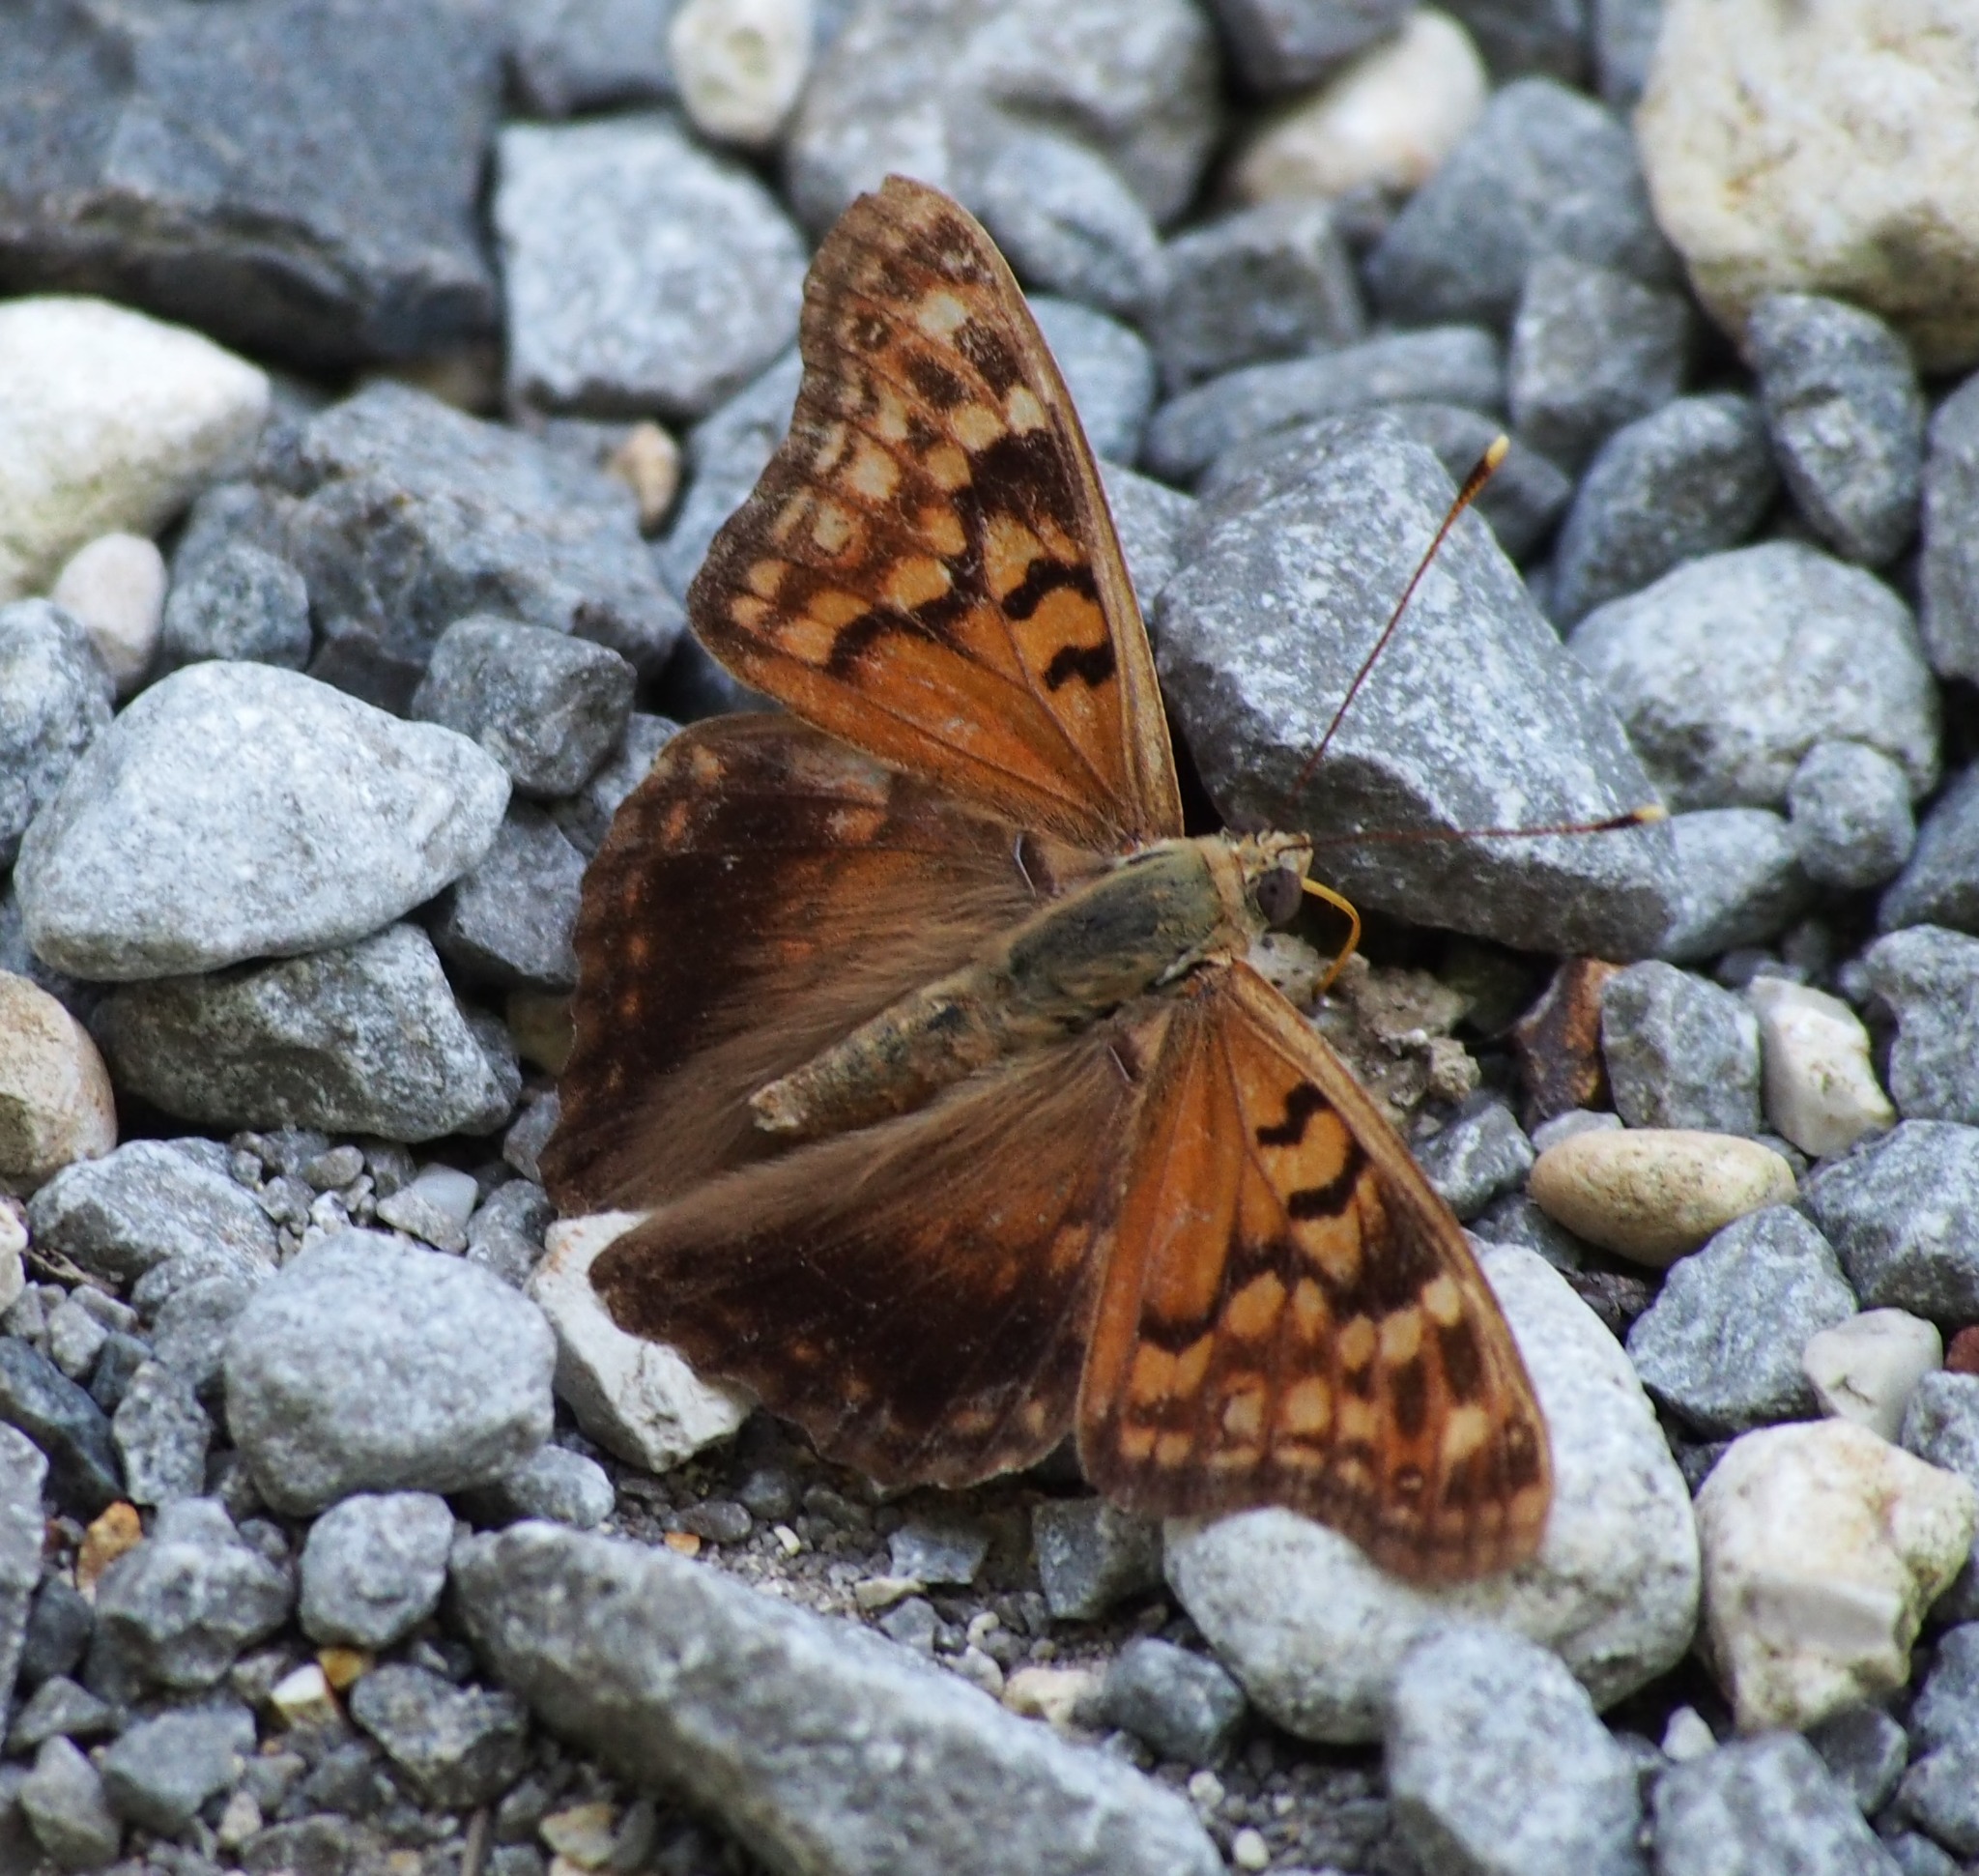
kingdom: Animalia
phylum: Arthropoda
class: Insecta
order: Lepidoptera
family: Nymphalidae
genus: Asterocampa
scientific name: Asterocampa clyton
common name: Tawny emperor
